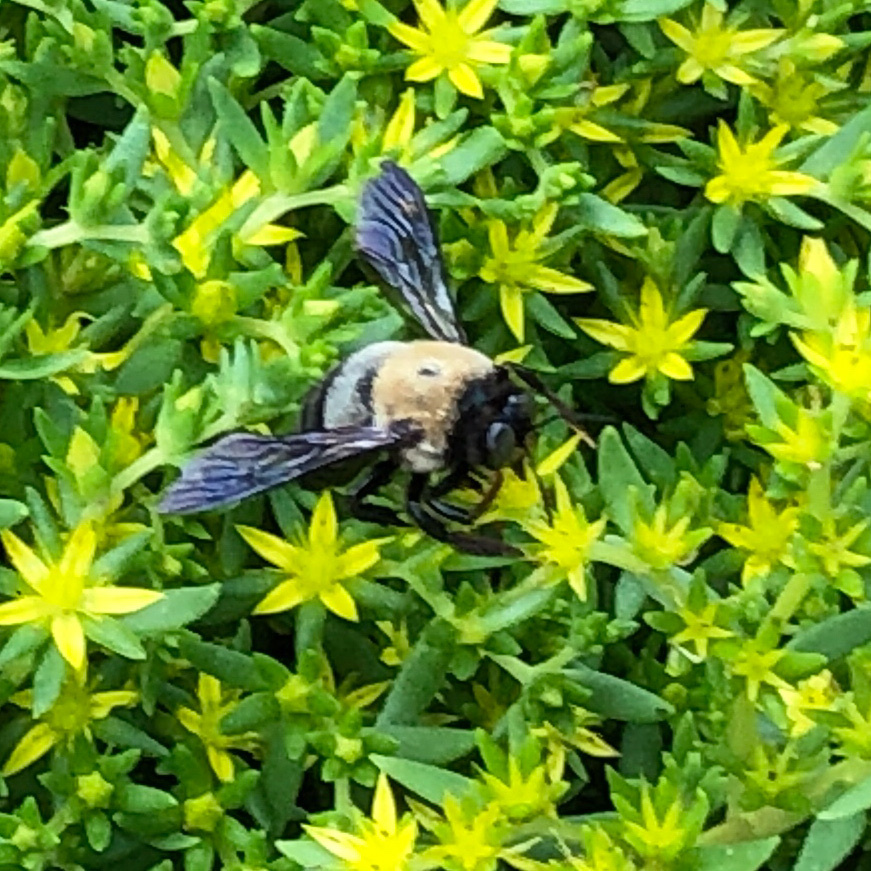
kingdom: Animalia
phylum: Arthropoda
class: Insecta
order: Hymenoptera
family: Apidae
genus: Xylocopa
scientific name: Xylocopa virginica
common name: Carpenter bee
